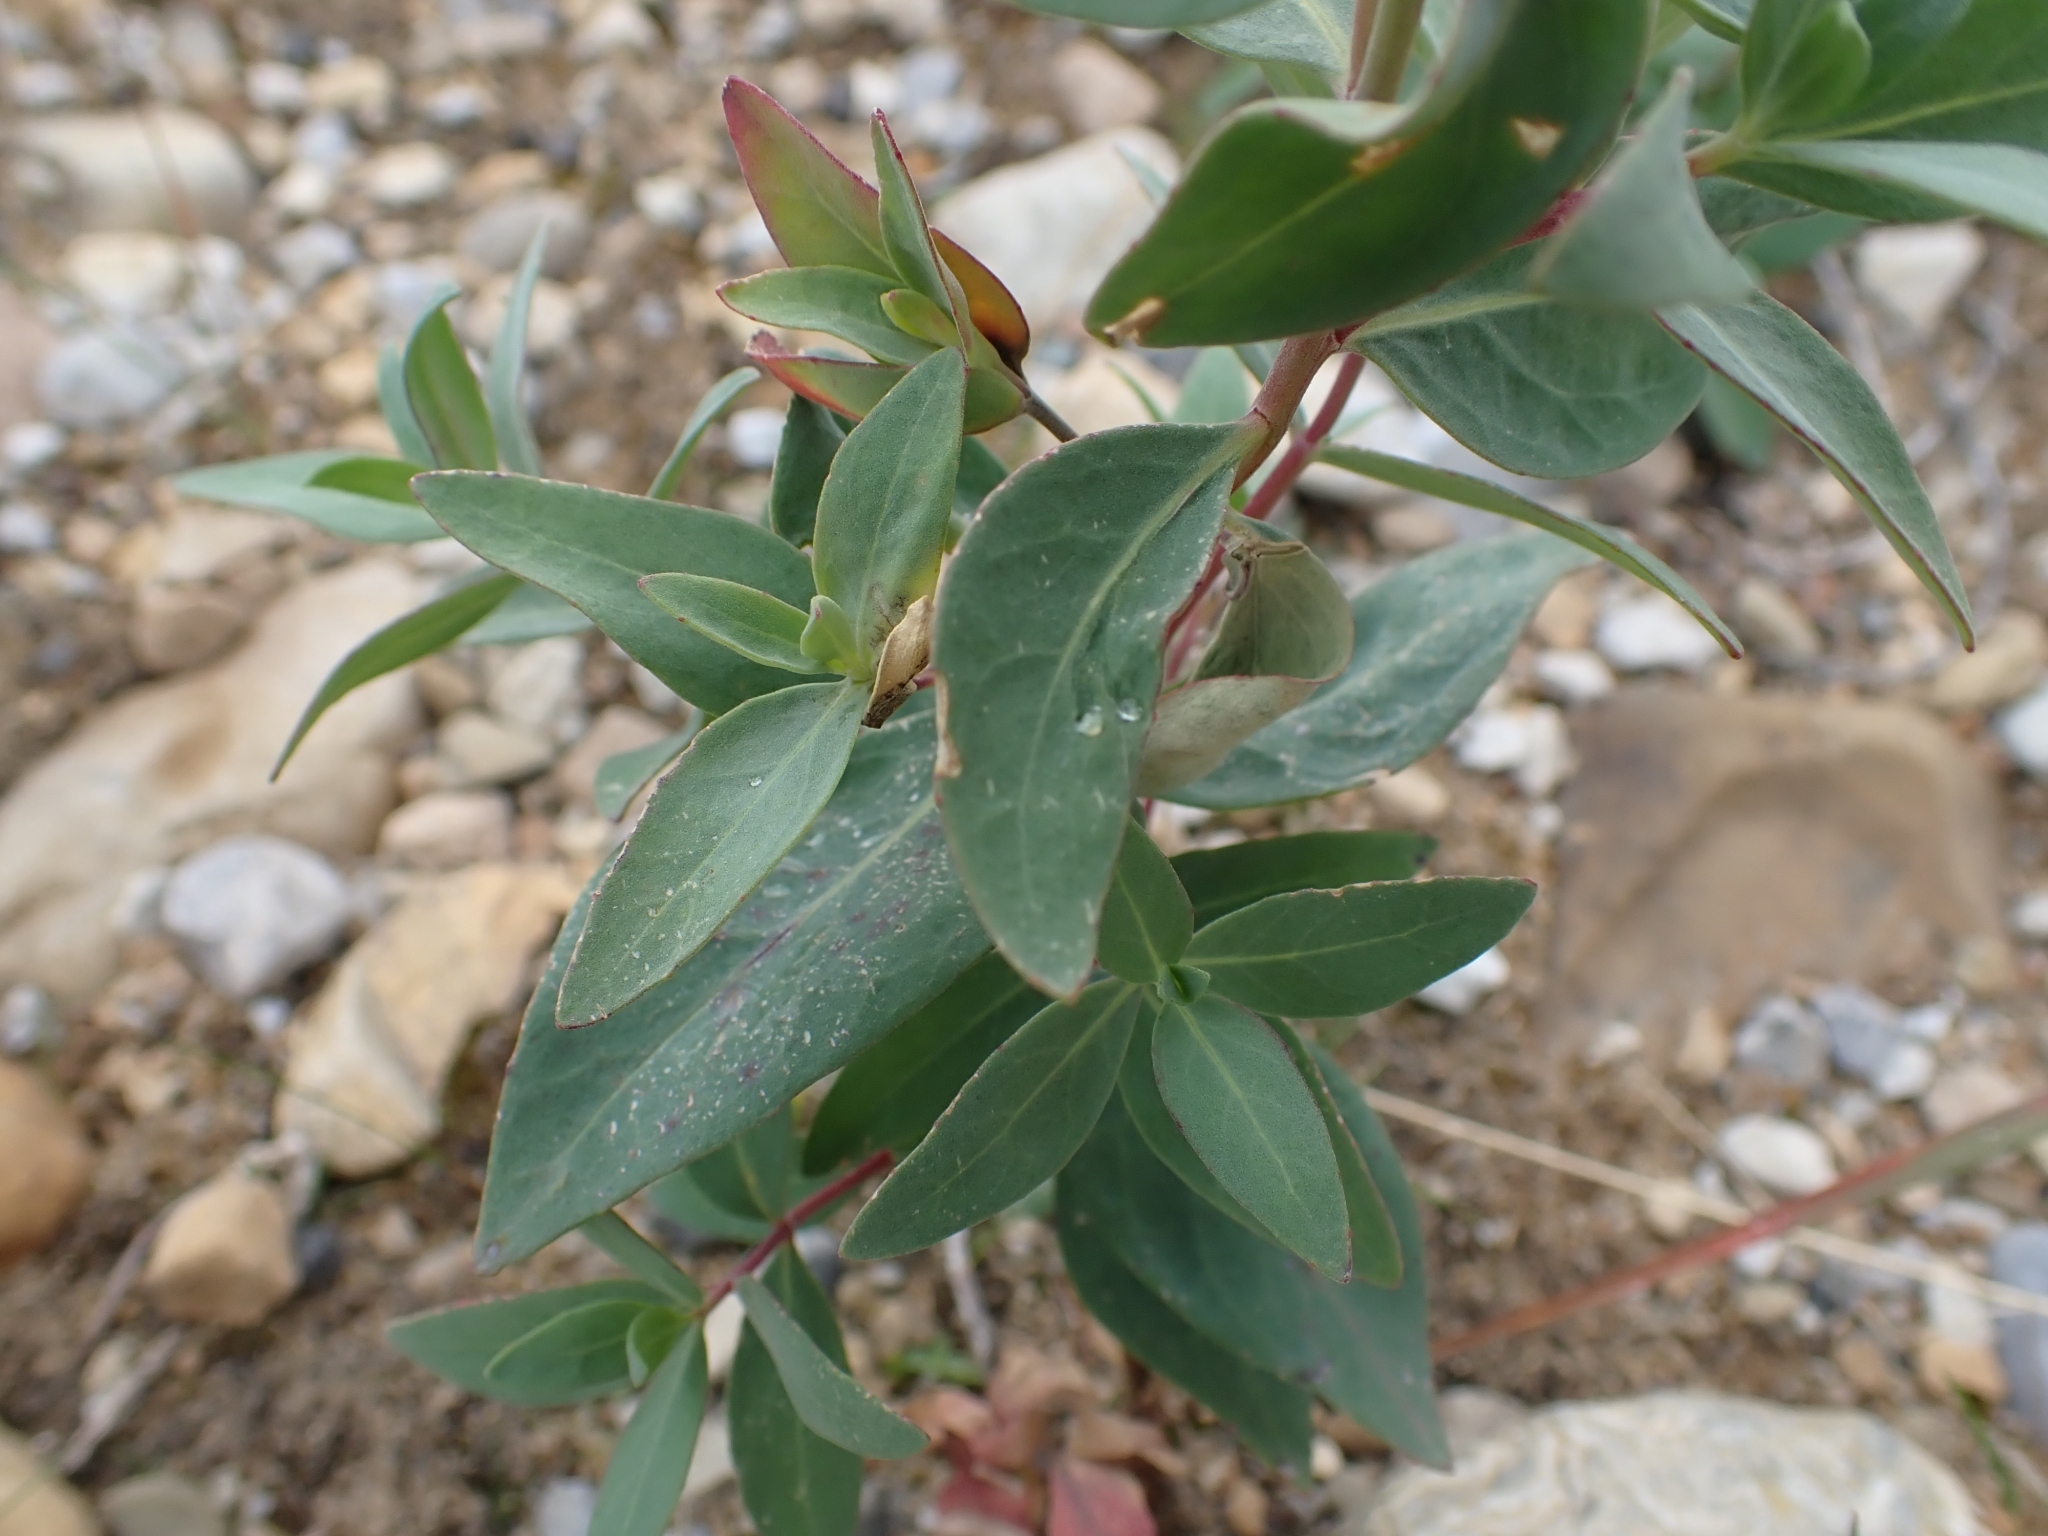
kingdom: Plantae
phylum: Tracheophyta
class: Magnoliopsida
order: Myrtales
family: Onagraceae
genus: Chamaenerion
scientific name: Chamaenerion latifolium
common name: Dwarf fireweed
